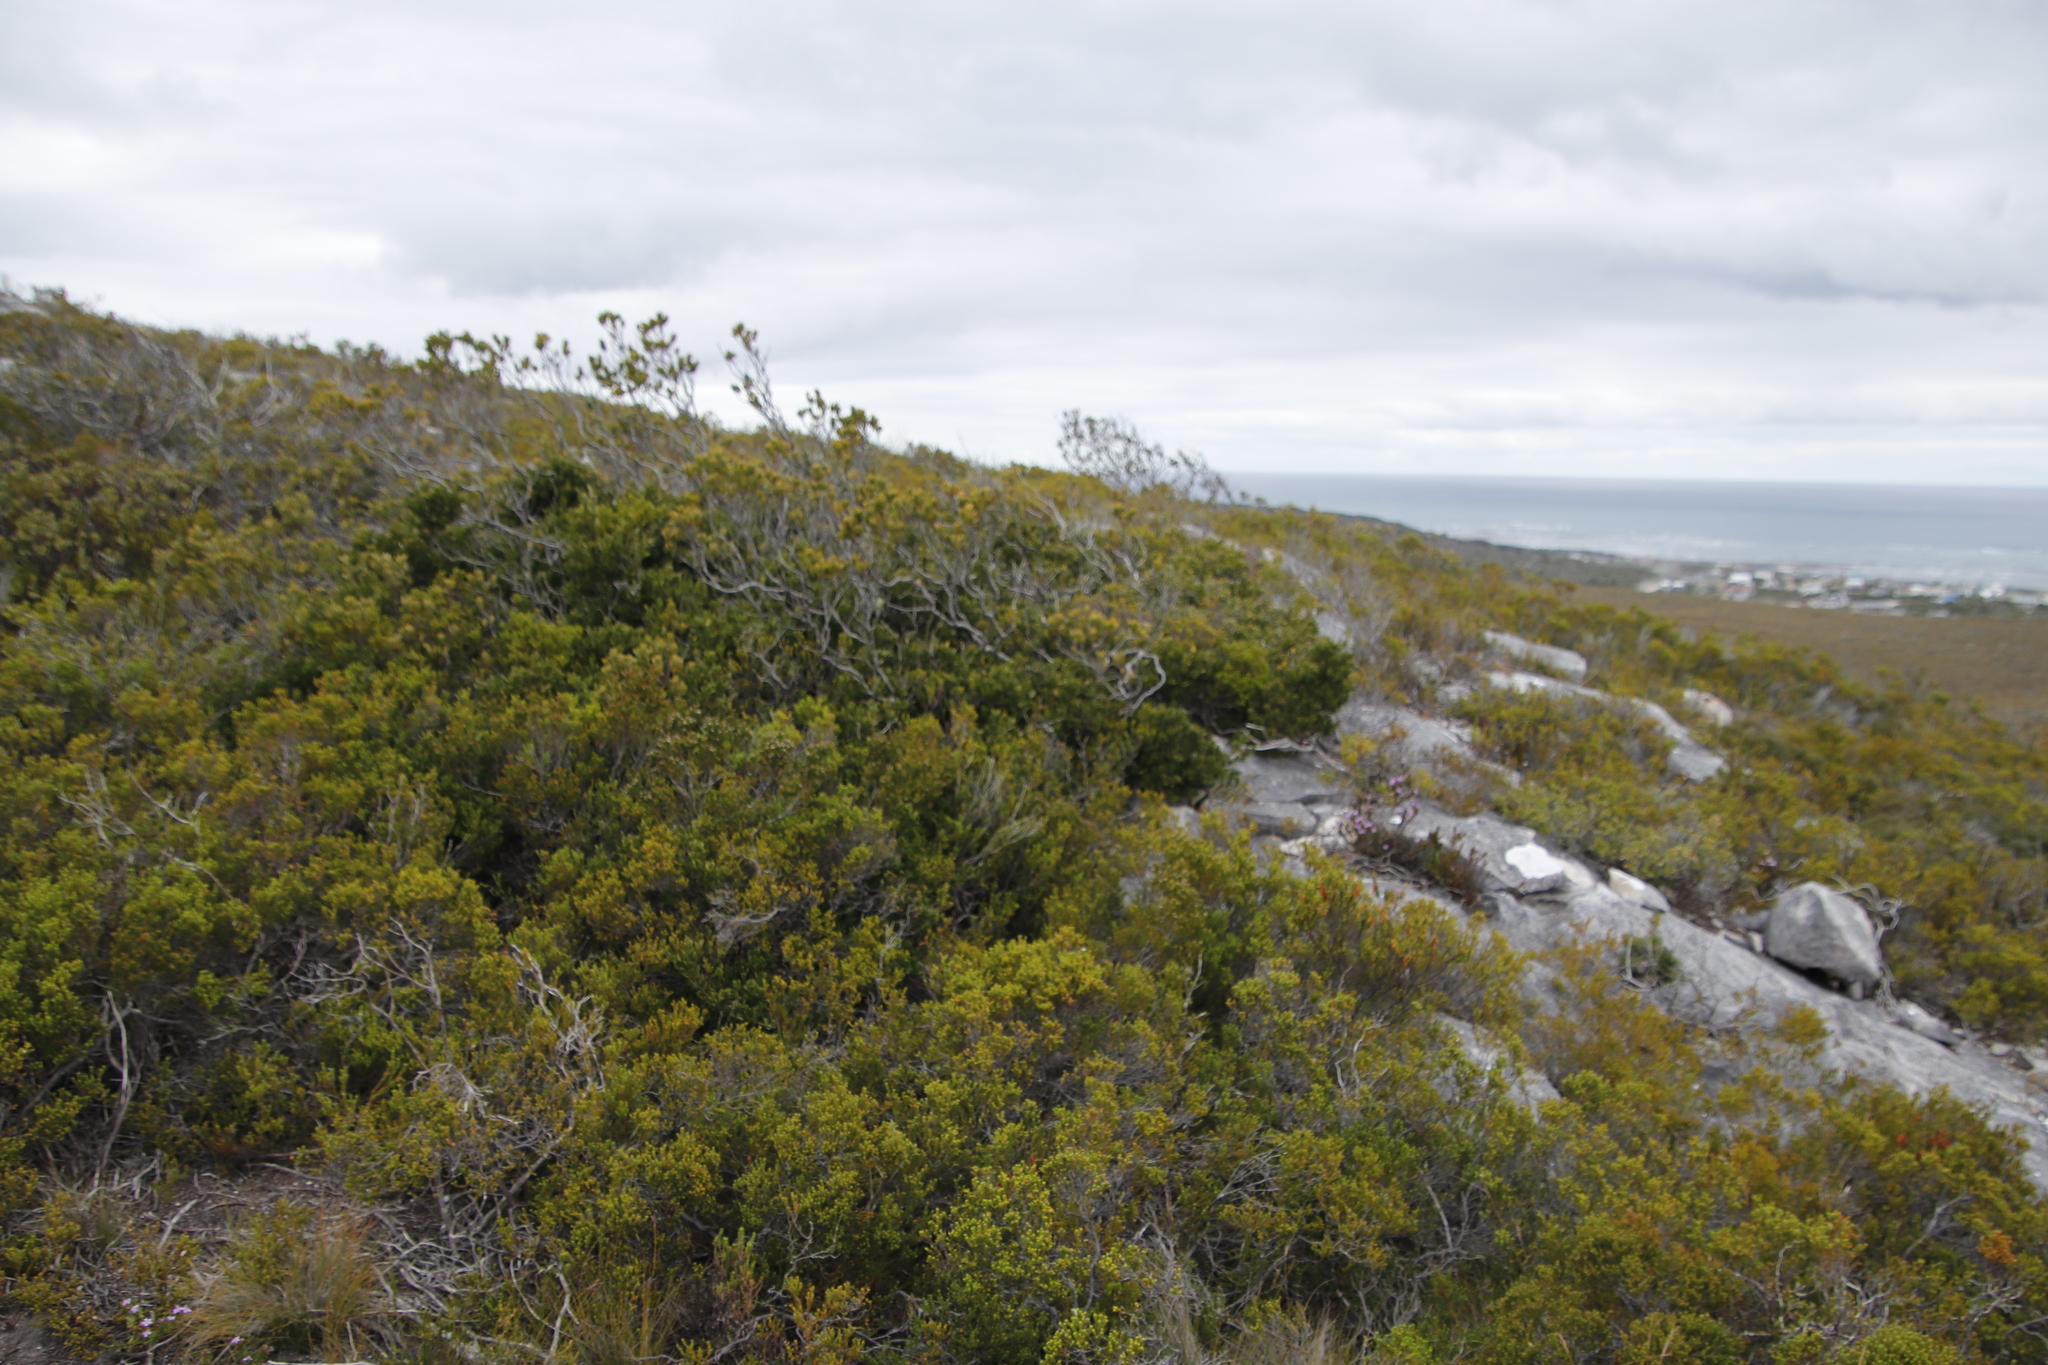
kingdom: Plantae
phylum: Tracheophyta
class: Magnoliopsida
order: Santalales
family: Santalaceae
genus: Osyris
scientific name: Osyris compressa
